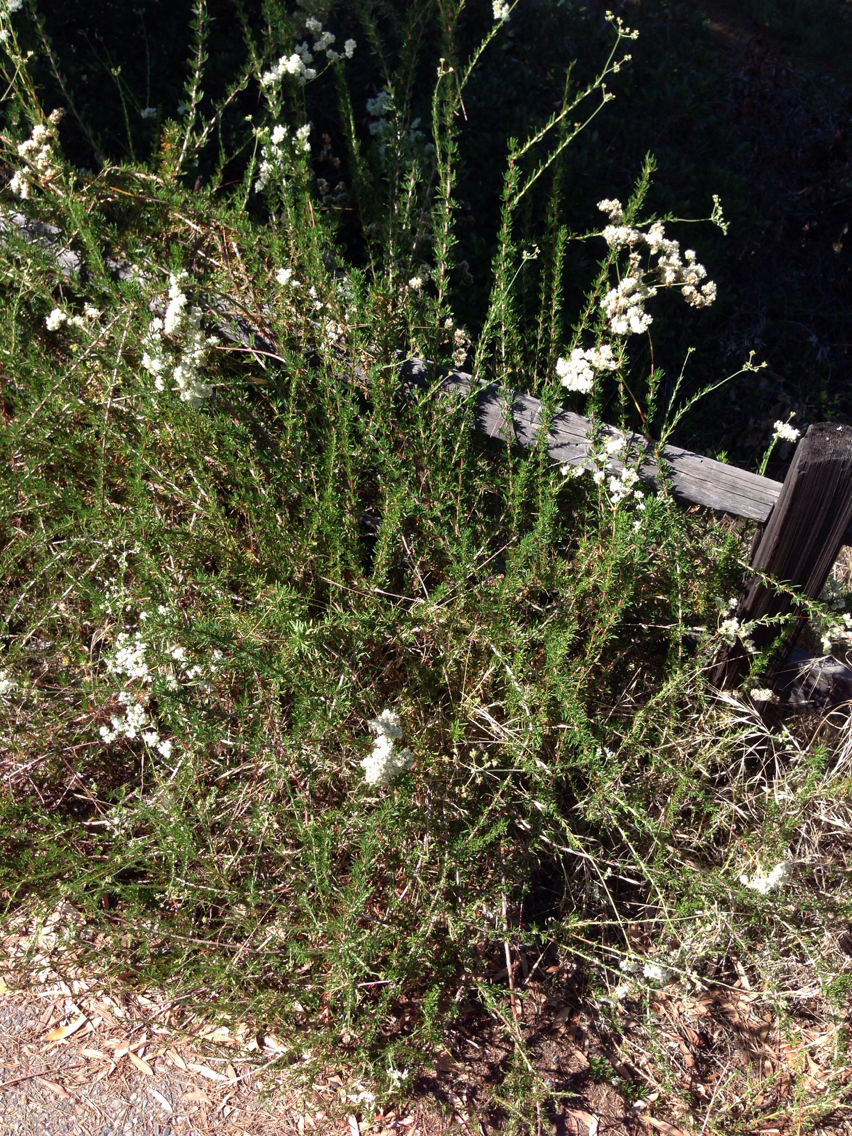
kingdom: Plantae
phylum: Tracheophyta
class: Magnoliopsida
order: Caryophyllales
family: Polygonaceae
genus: Eriogonum
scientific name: Eriogonum fasciculatum
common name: California wild buckwheat
